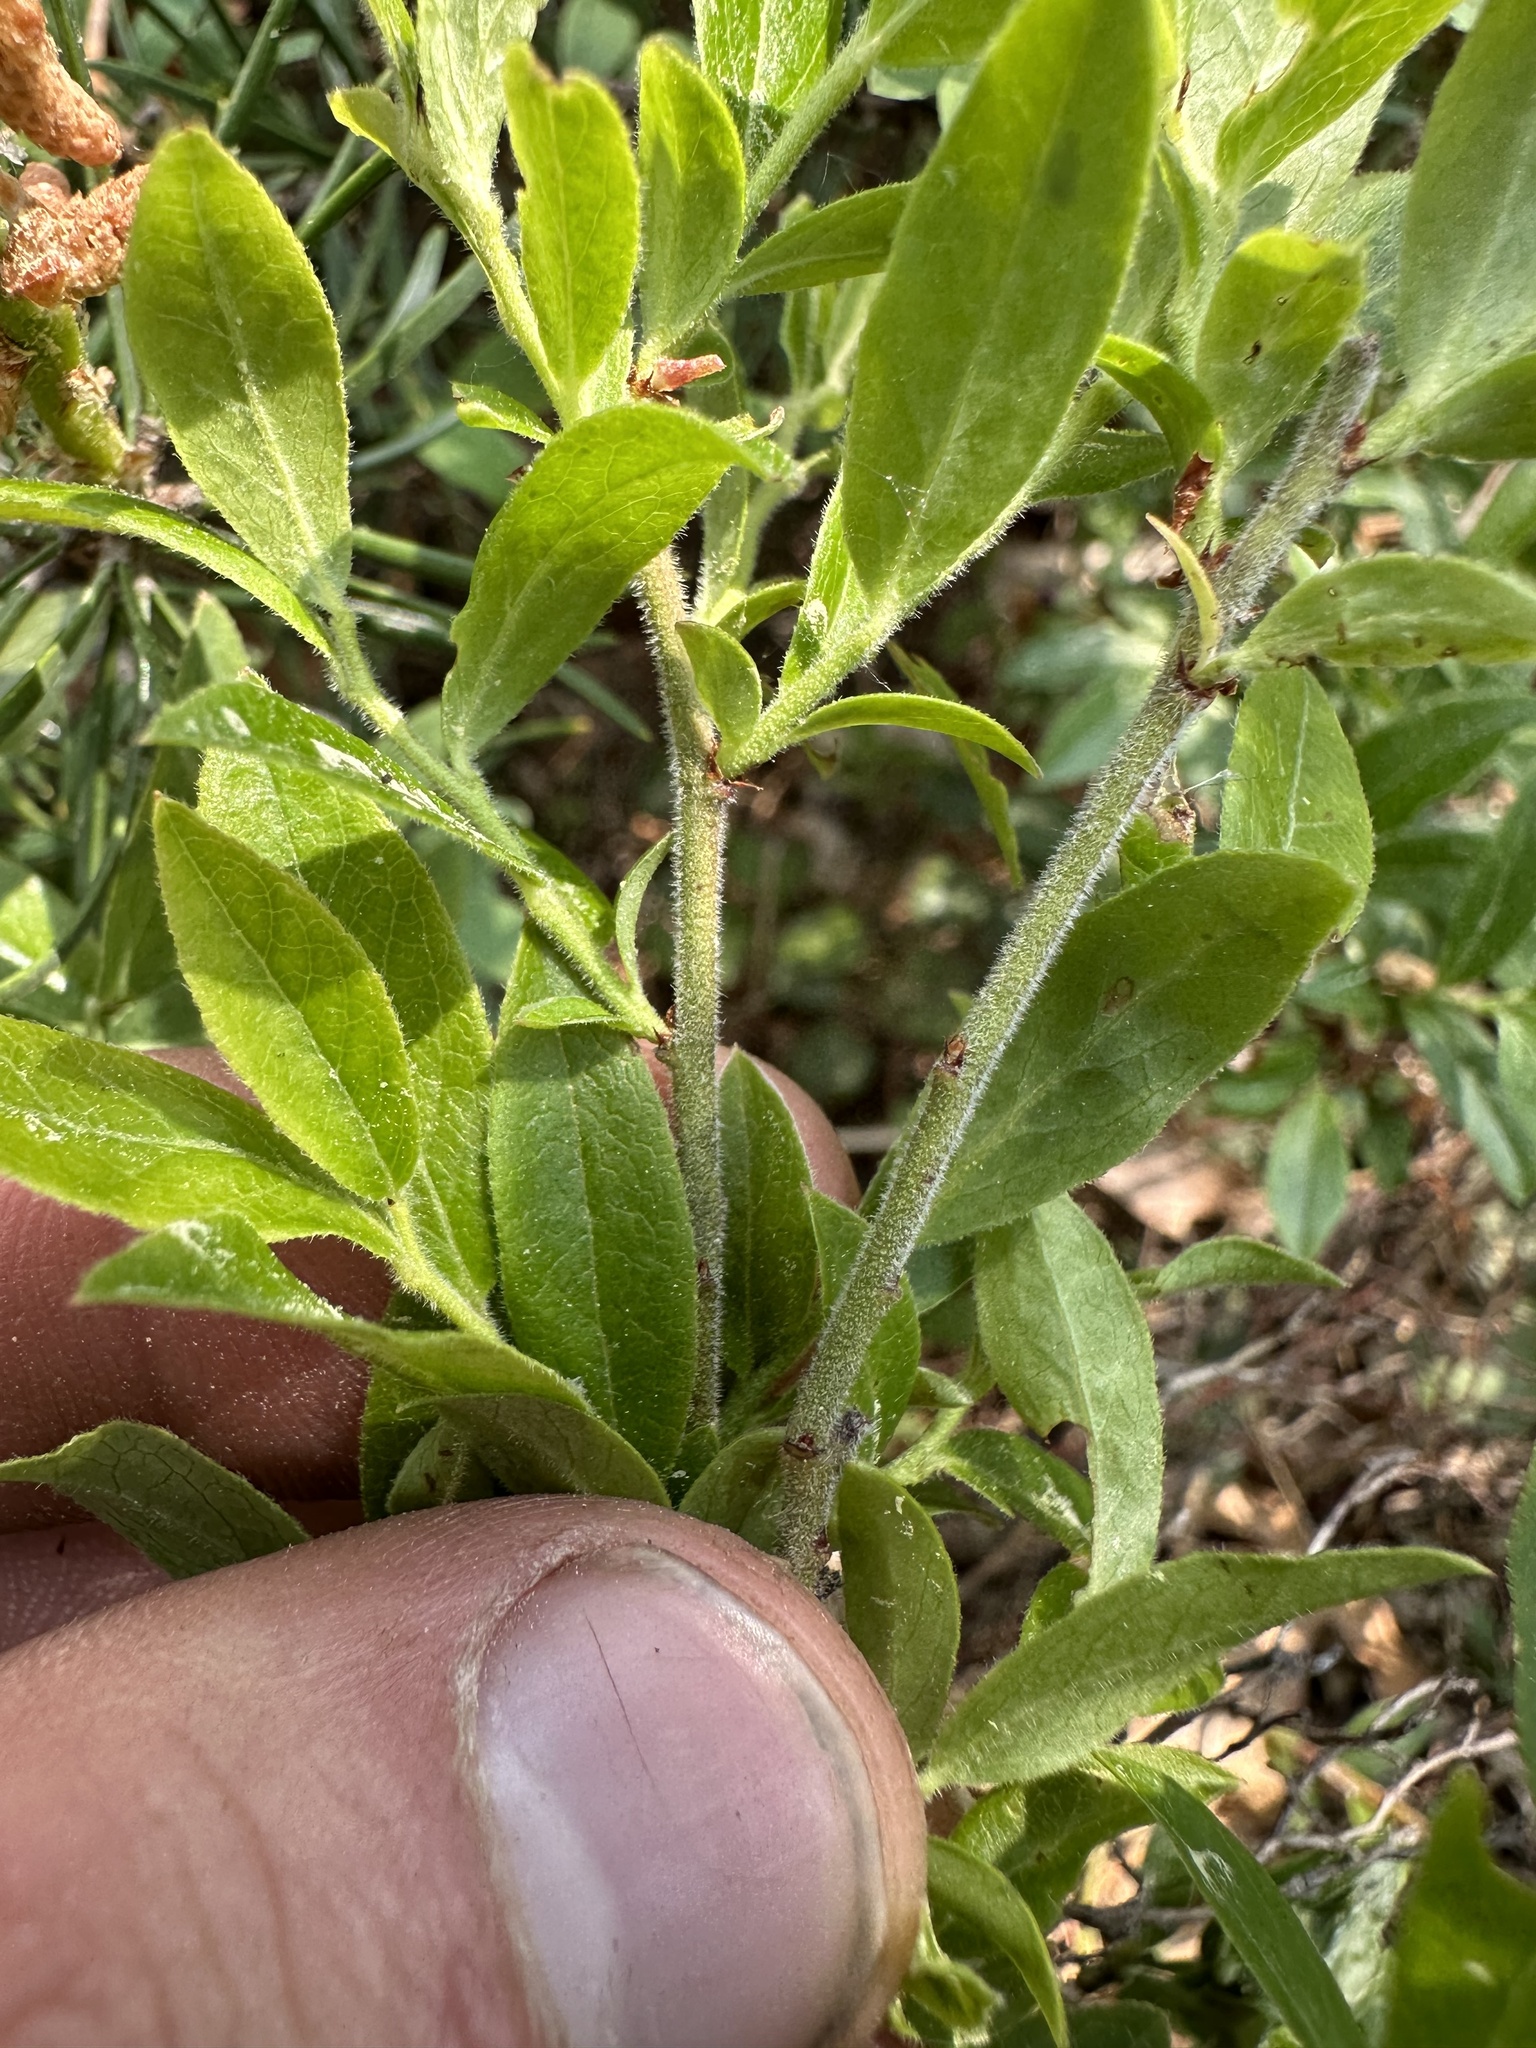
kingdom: Plantae
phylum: Tracheophyta
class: Magnoliopsida
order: Ericales
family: Ericaceae
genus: Vaccinium
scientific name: Vaccinium myrtilloides
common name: Canada blueberry
